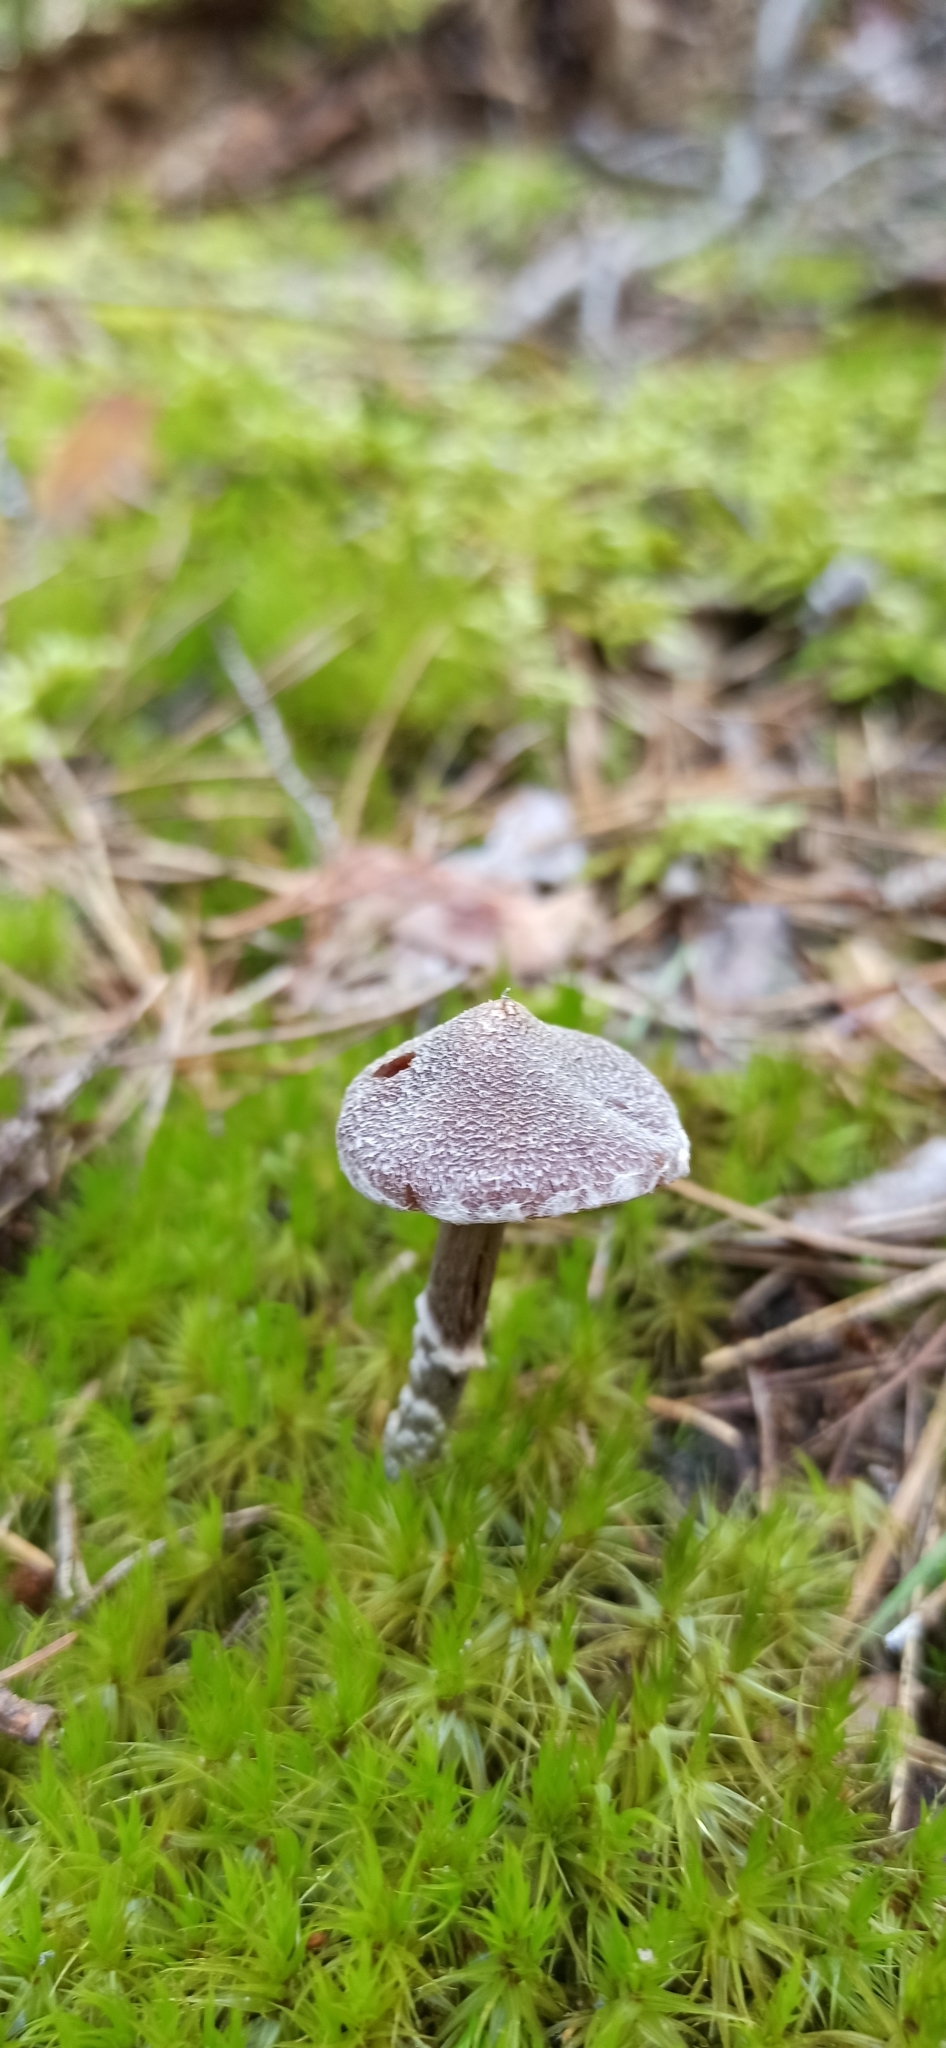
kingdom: Fungi
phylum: Basidiomycota
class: Agaricomycetes
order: Agaricales
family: Cortinariaceae
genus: Cortinarius
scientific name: Cortinarius flexipes
